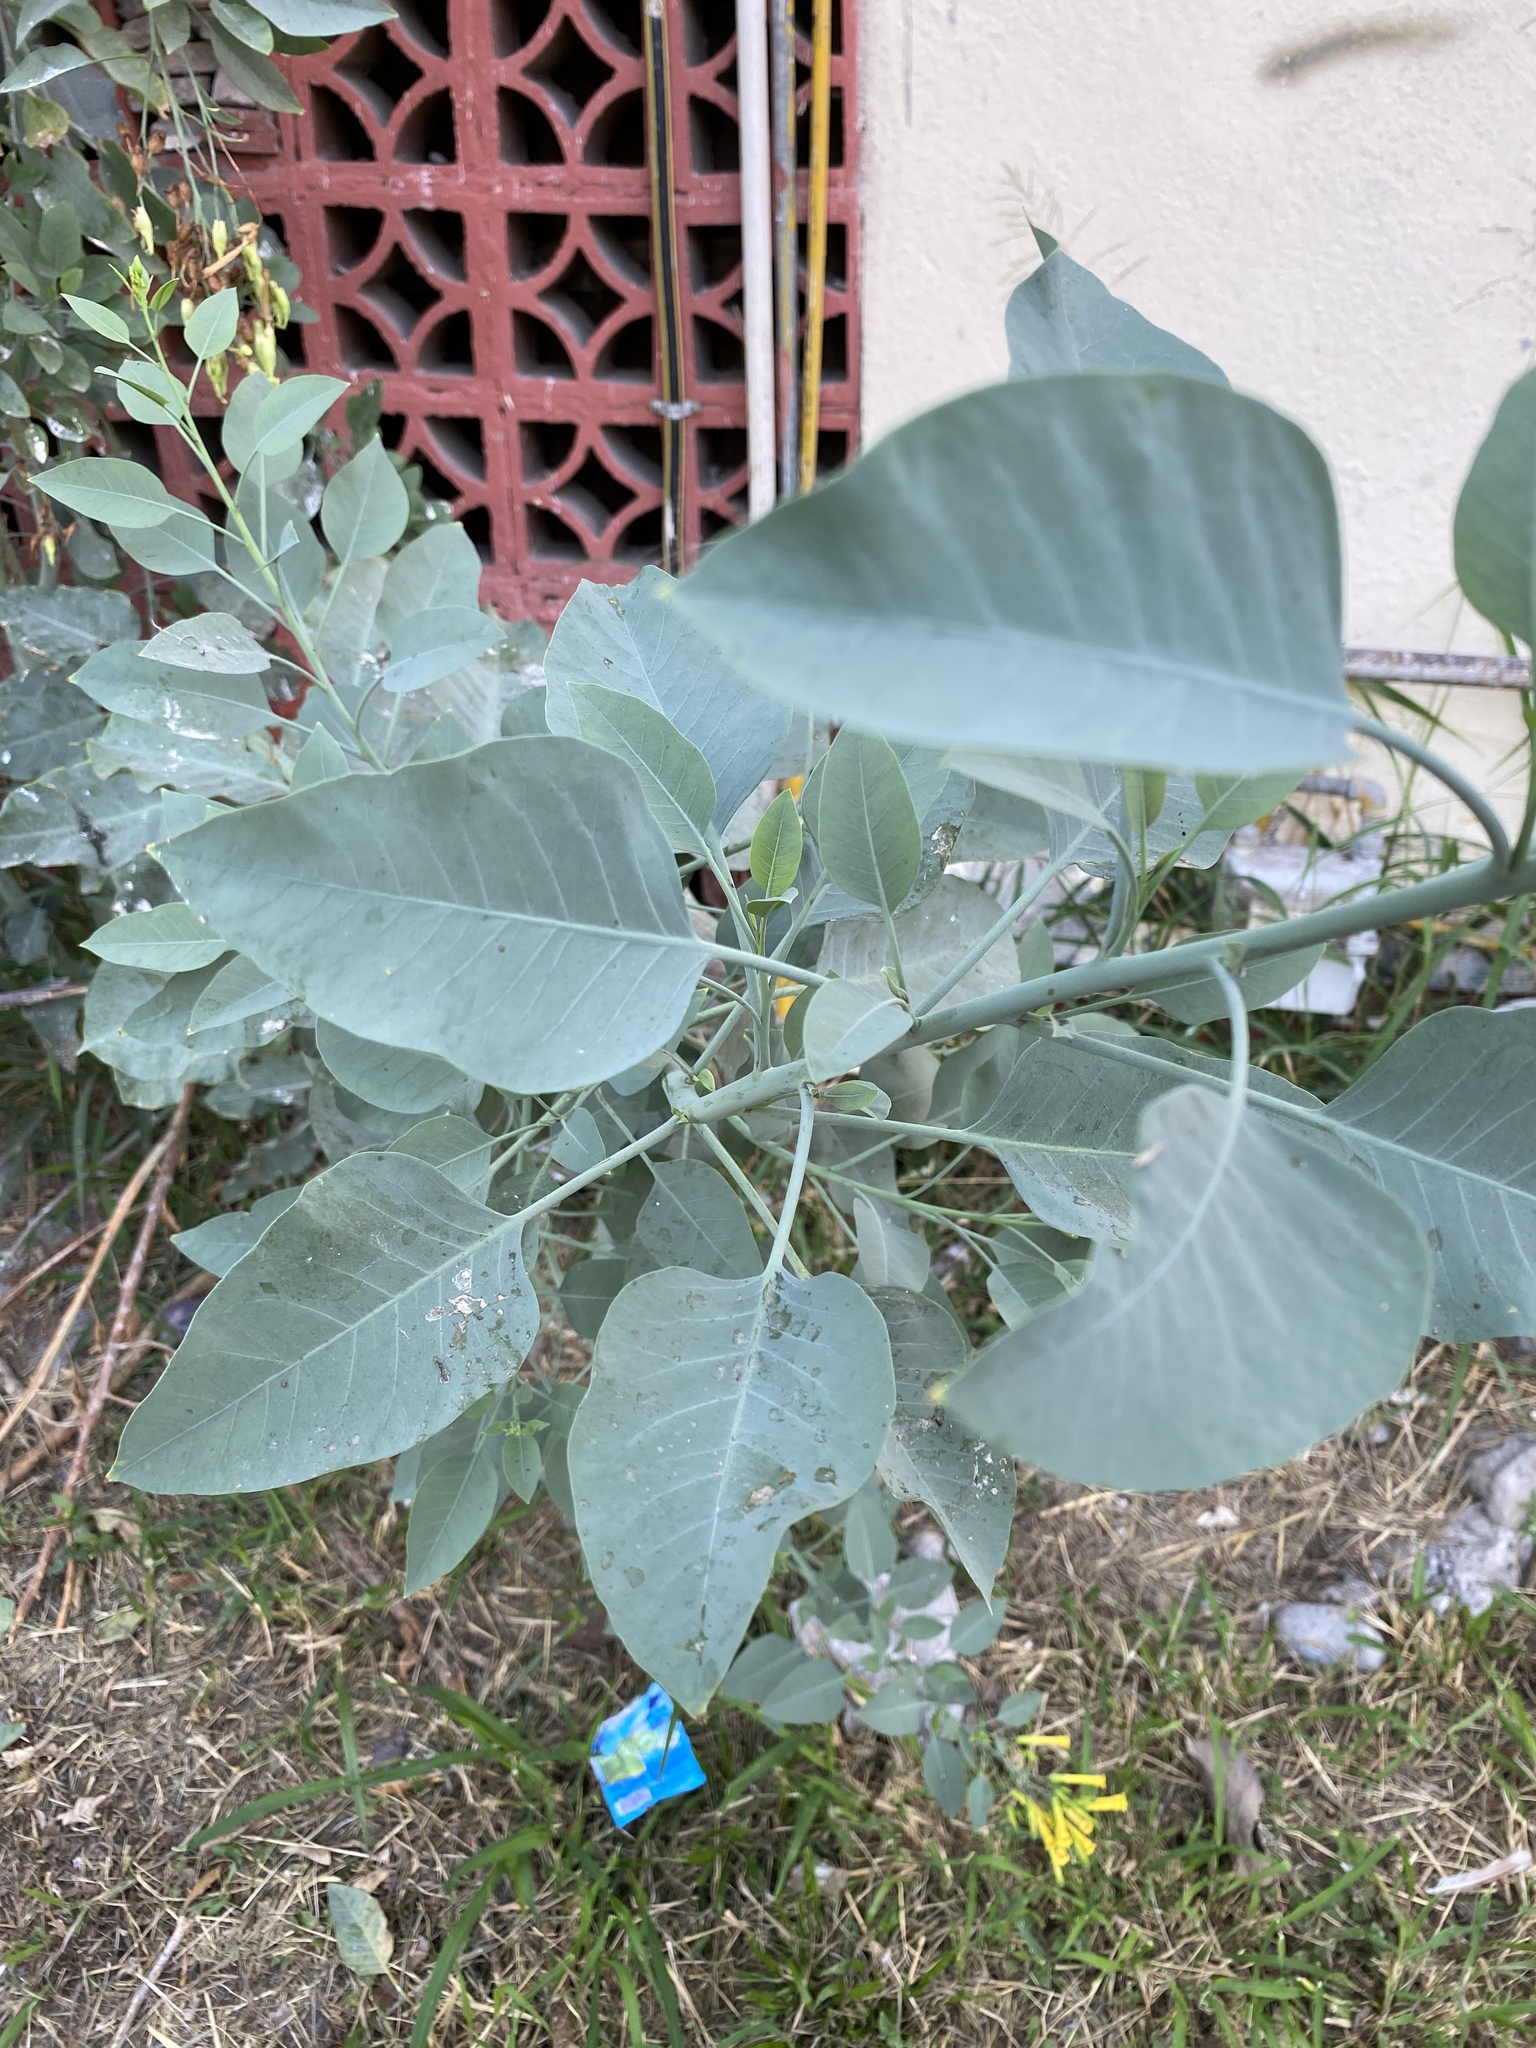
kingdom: Plantae
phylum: Tracheophyta
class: Magnoliopsida
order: Solanales
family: Solanaceae
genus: Nicotiana
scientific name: Nicotiana glauca
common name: Tree tobacco
